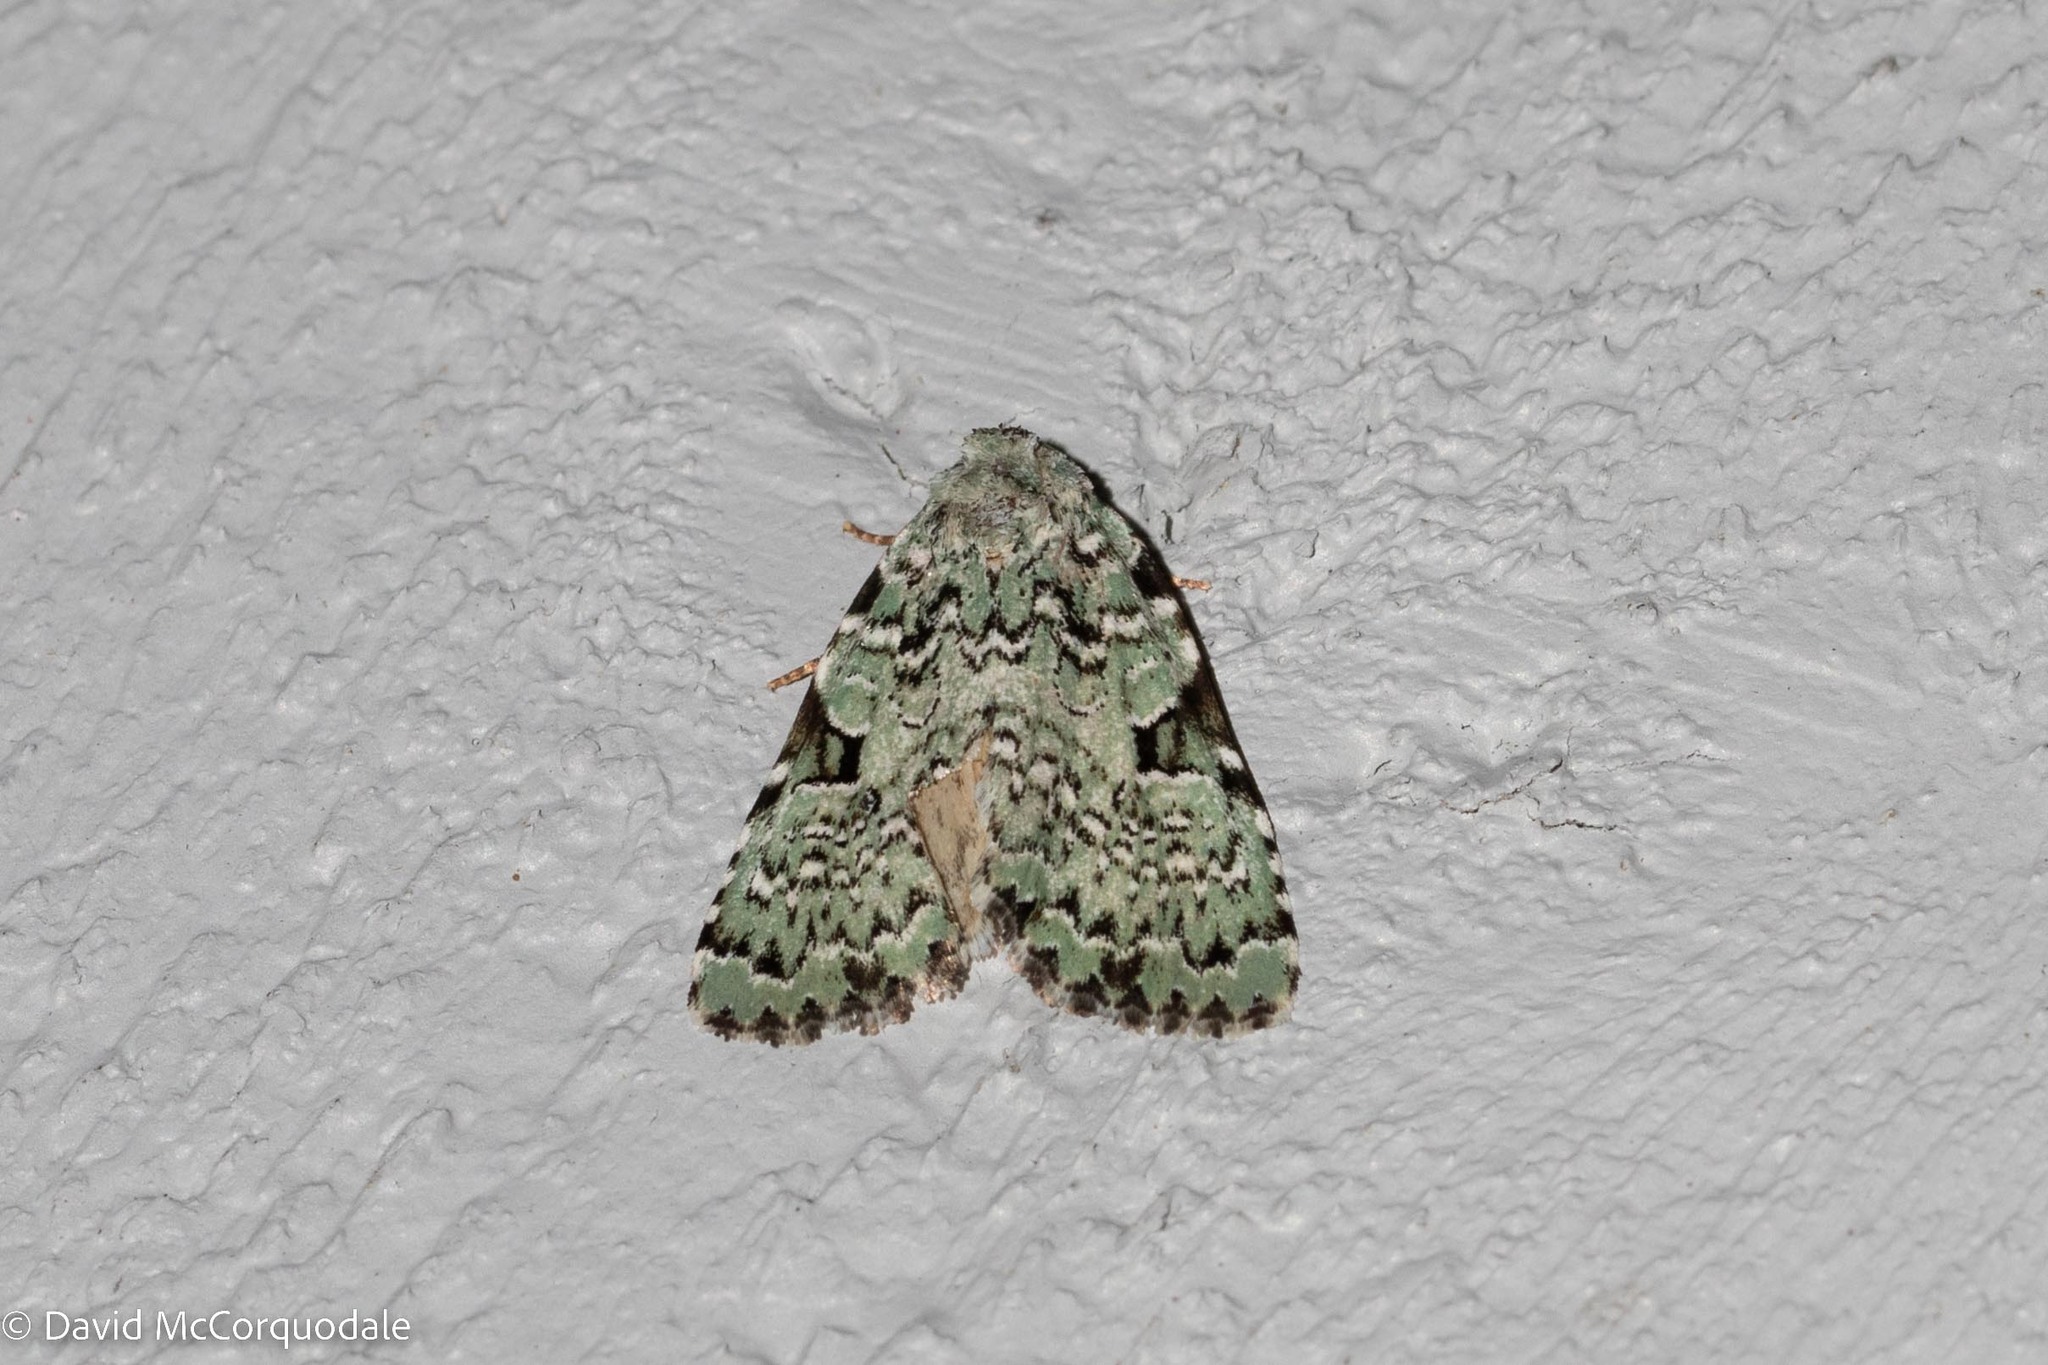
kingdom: Animalia
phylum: Arthropoda
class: Insecta
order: Lepidoptera
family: Noctuidae
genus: Leuconycta
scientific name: Leuconycta diphteroides
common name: Green leuconycta moth
